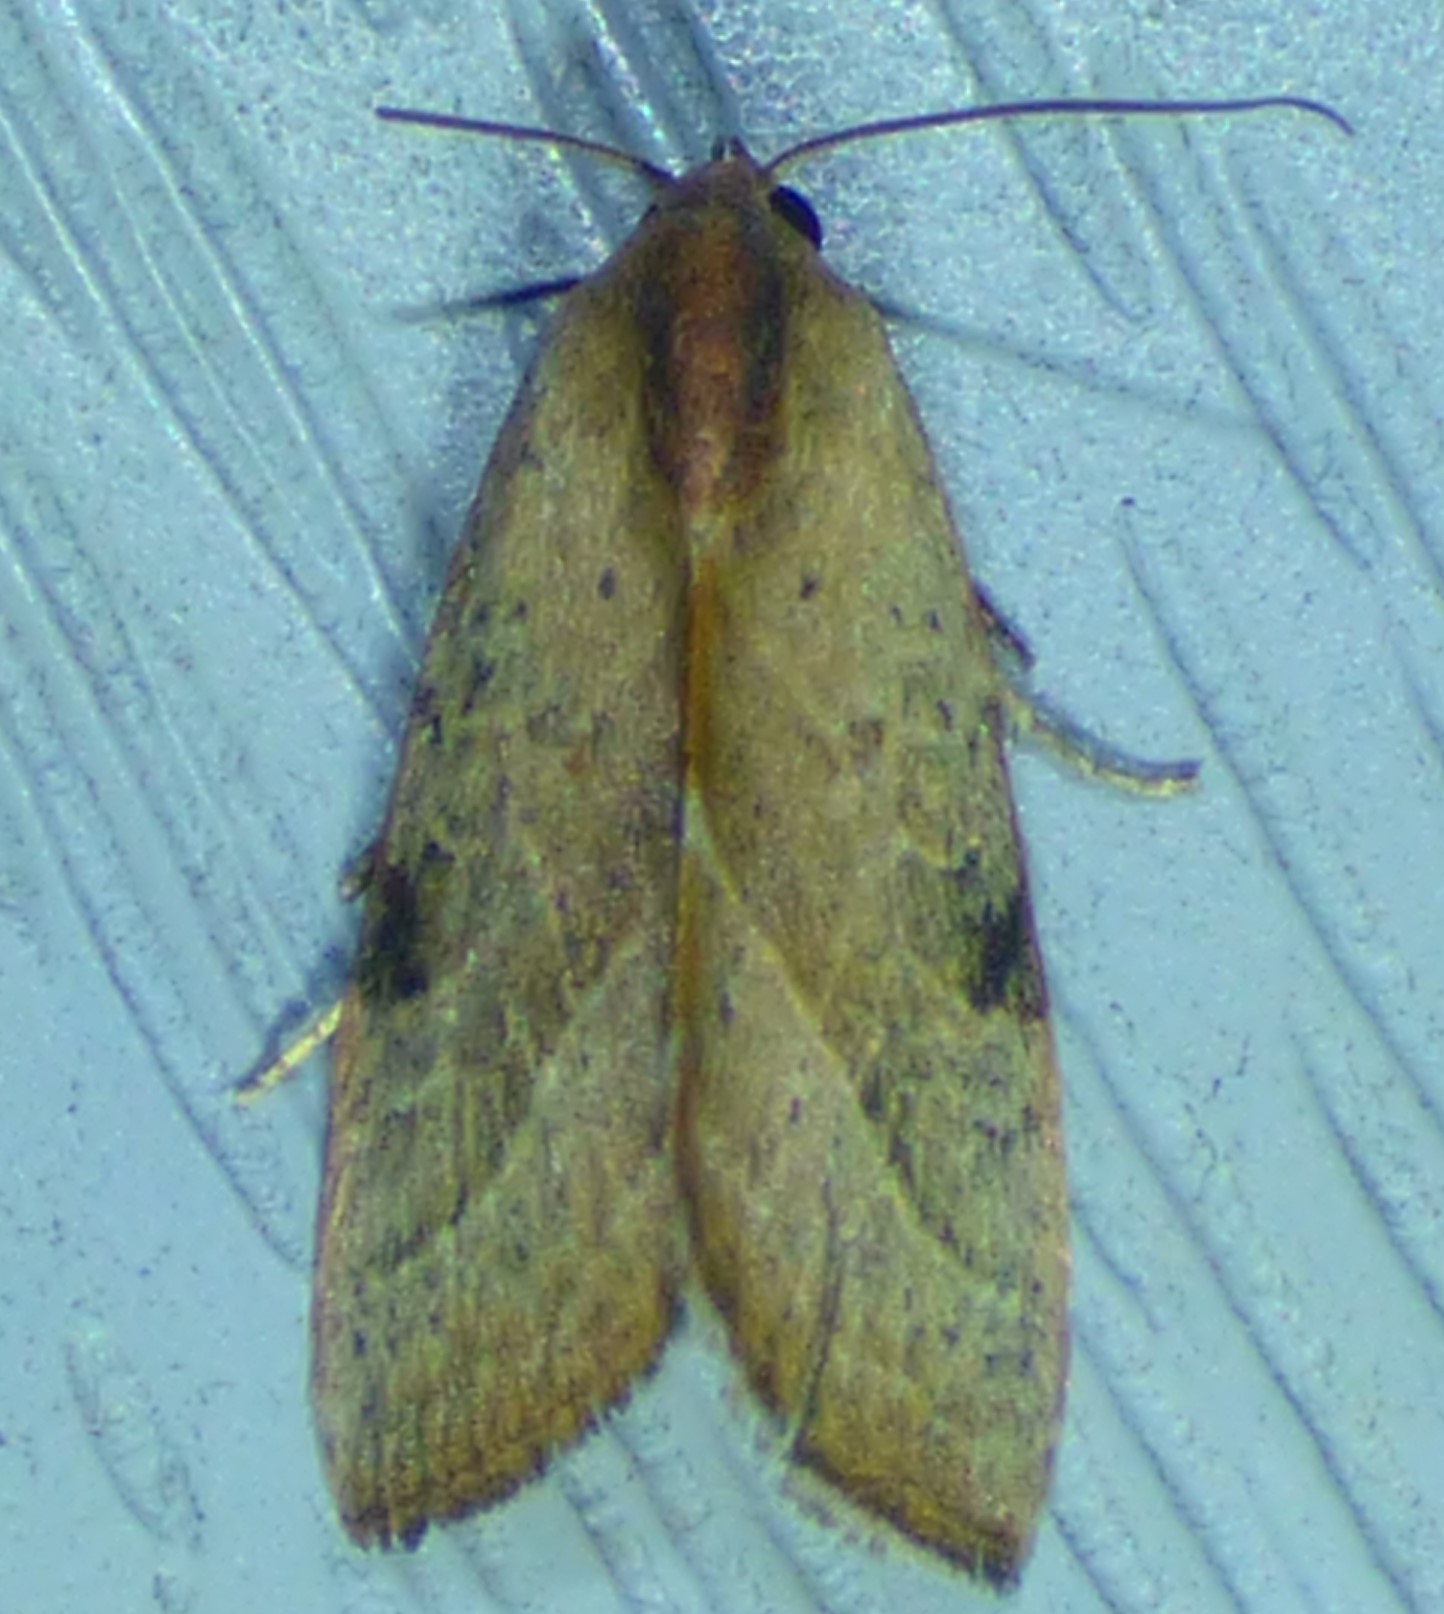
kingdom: Animalia
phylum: Arthropoda
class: Insecta
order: Lepidoptera
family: Noctuidae
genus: Galgula
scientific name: Galgula partita
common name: Wedgeling
